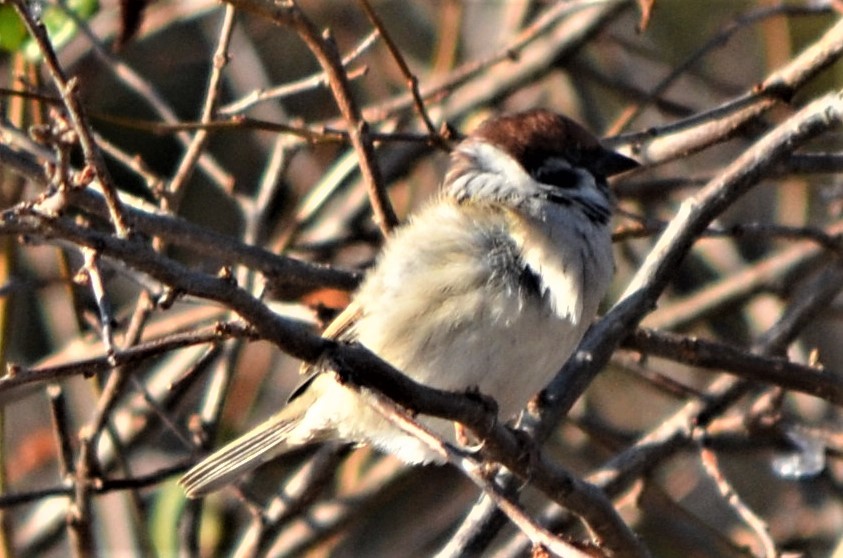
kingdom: Animalia
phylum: Chordata
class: Aves
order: Passeriformes
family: Passeridae
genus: Passer
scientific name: Passer montanus
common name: Eurasian tree sparrow
